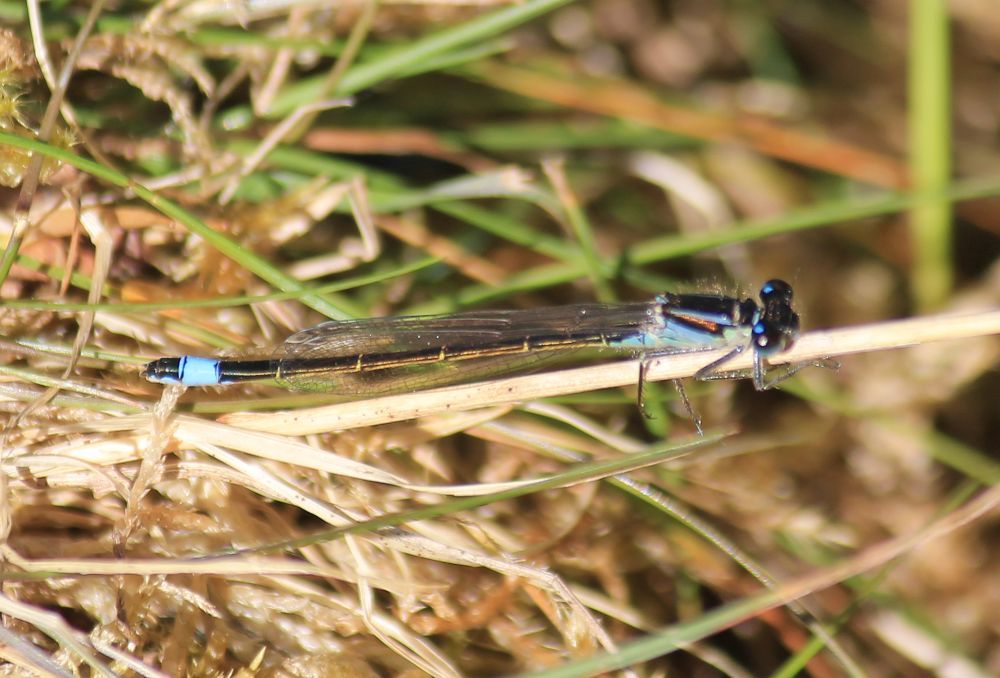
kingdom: Animalia
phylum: Arthropoda
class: Insecta
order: Odonata
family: Coenagrionidae
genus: Ischnura
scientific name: Ischnura elegans
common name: Blue-tailed damselfly
